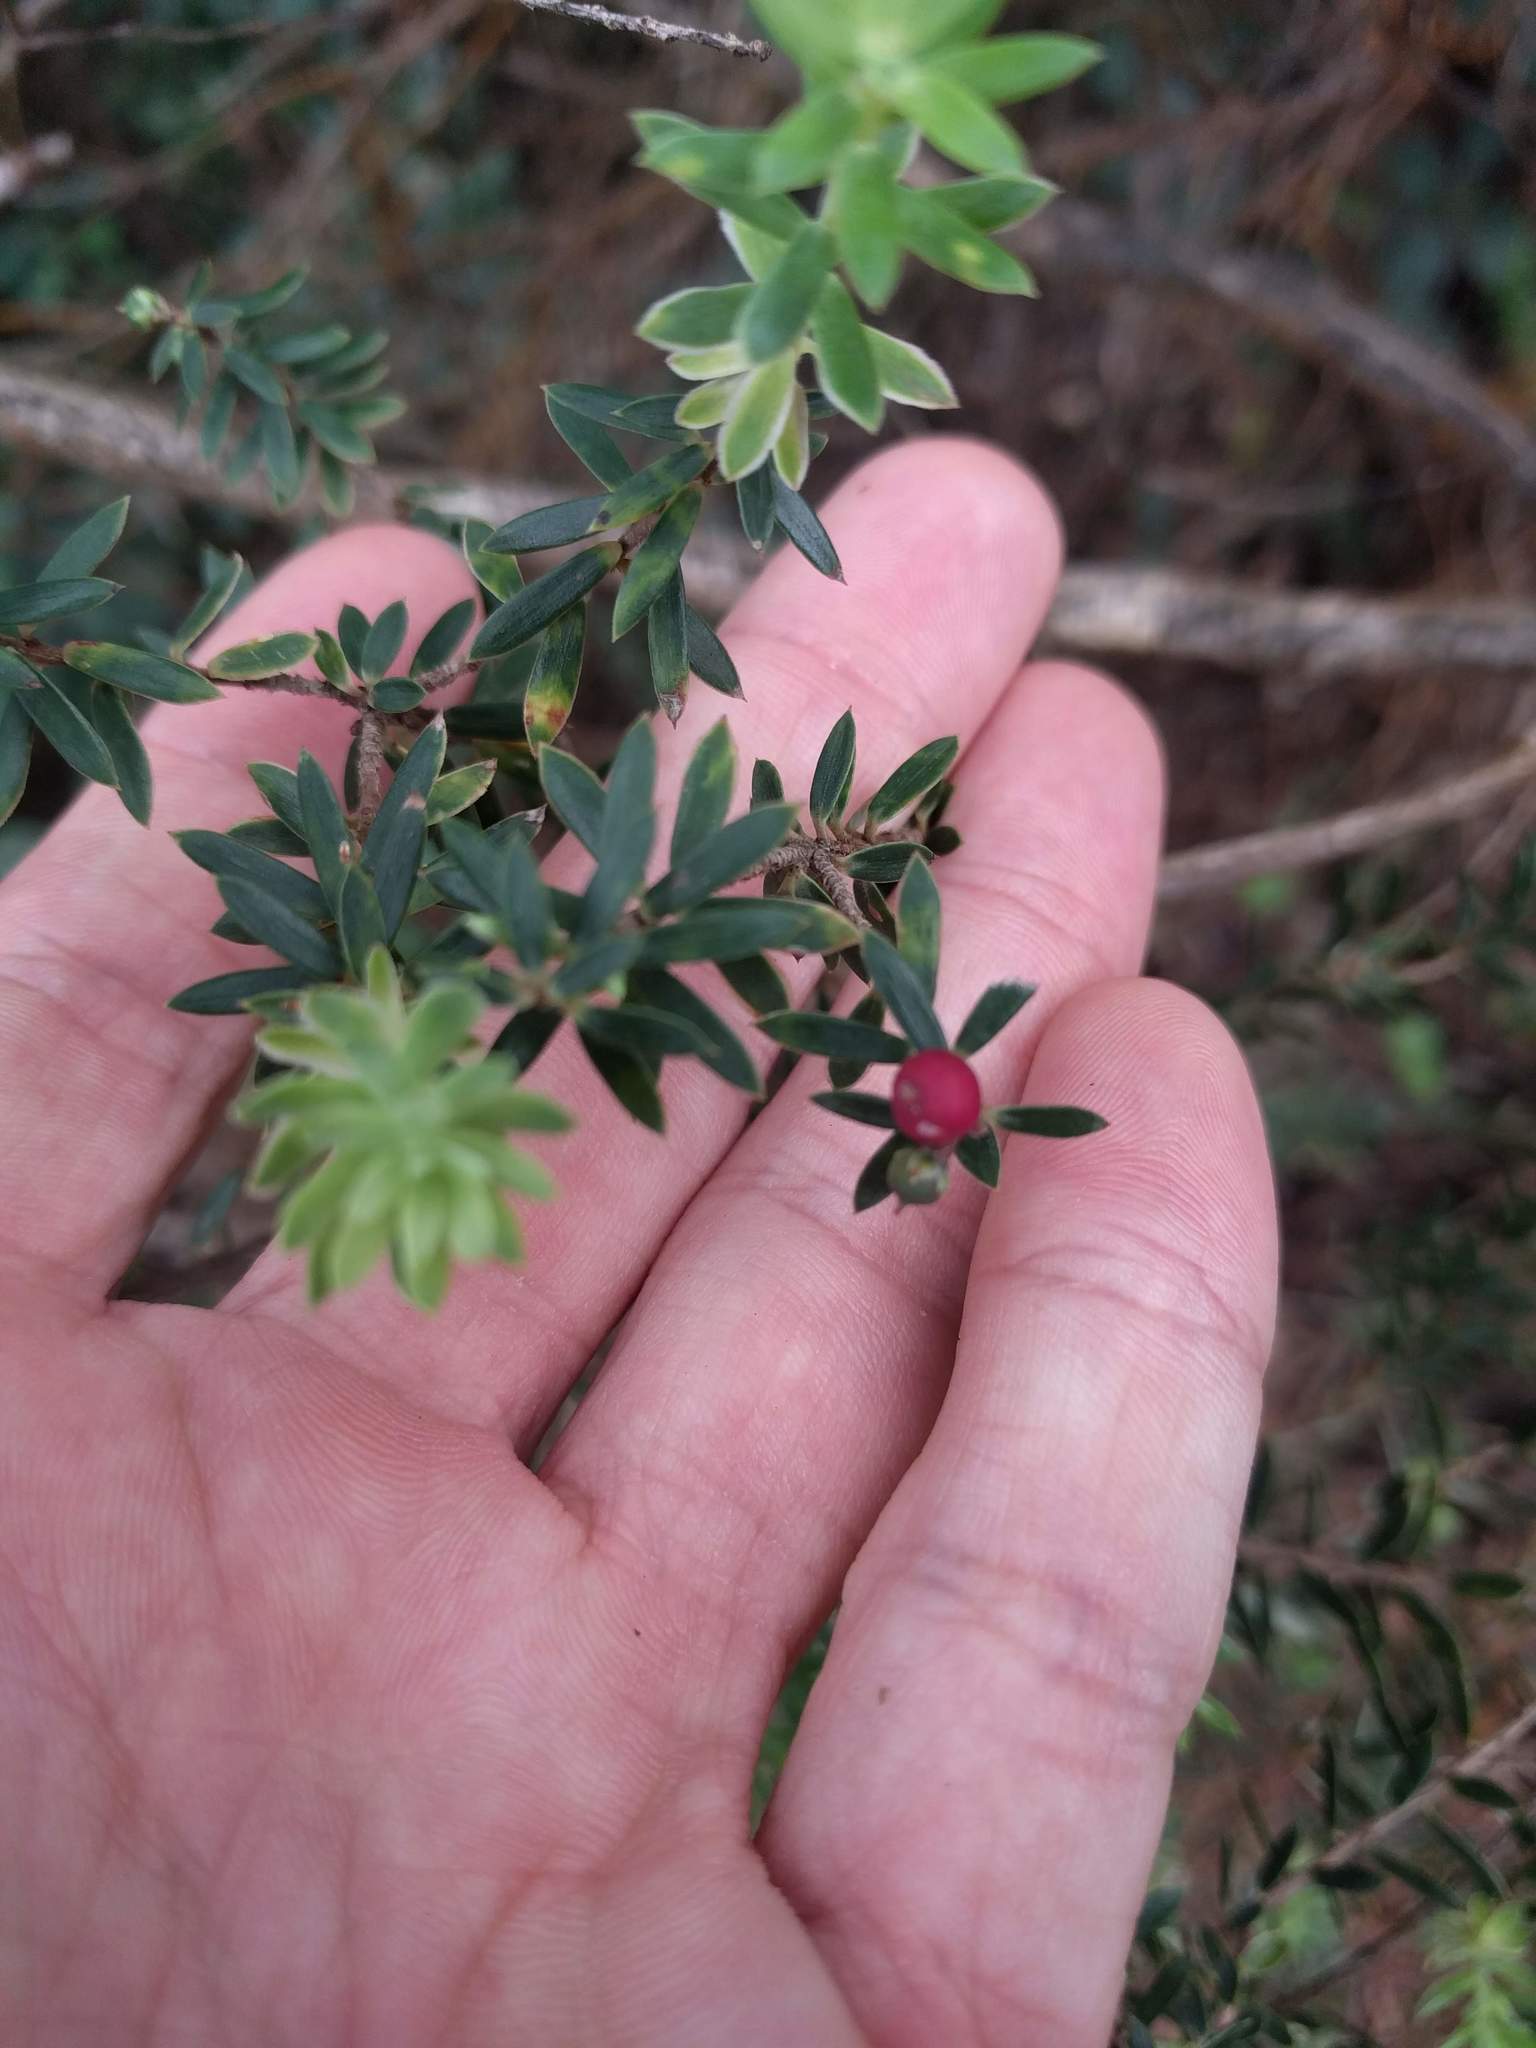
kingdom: Plantae
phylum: Tracheophyta
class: Magnoliopsida
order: Ericales
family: Ericaceae
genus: Leptecophylla
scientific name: Leptecophylla tameiameiae
